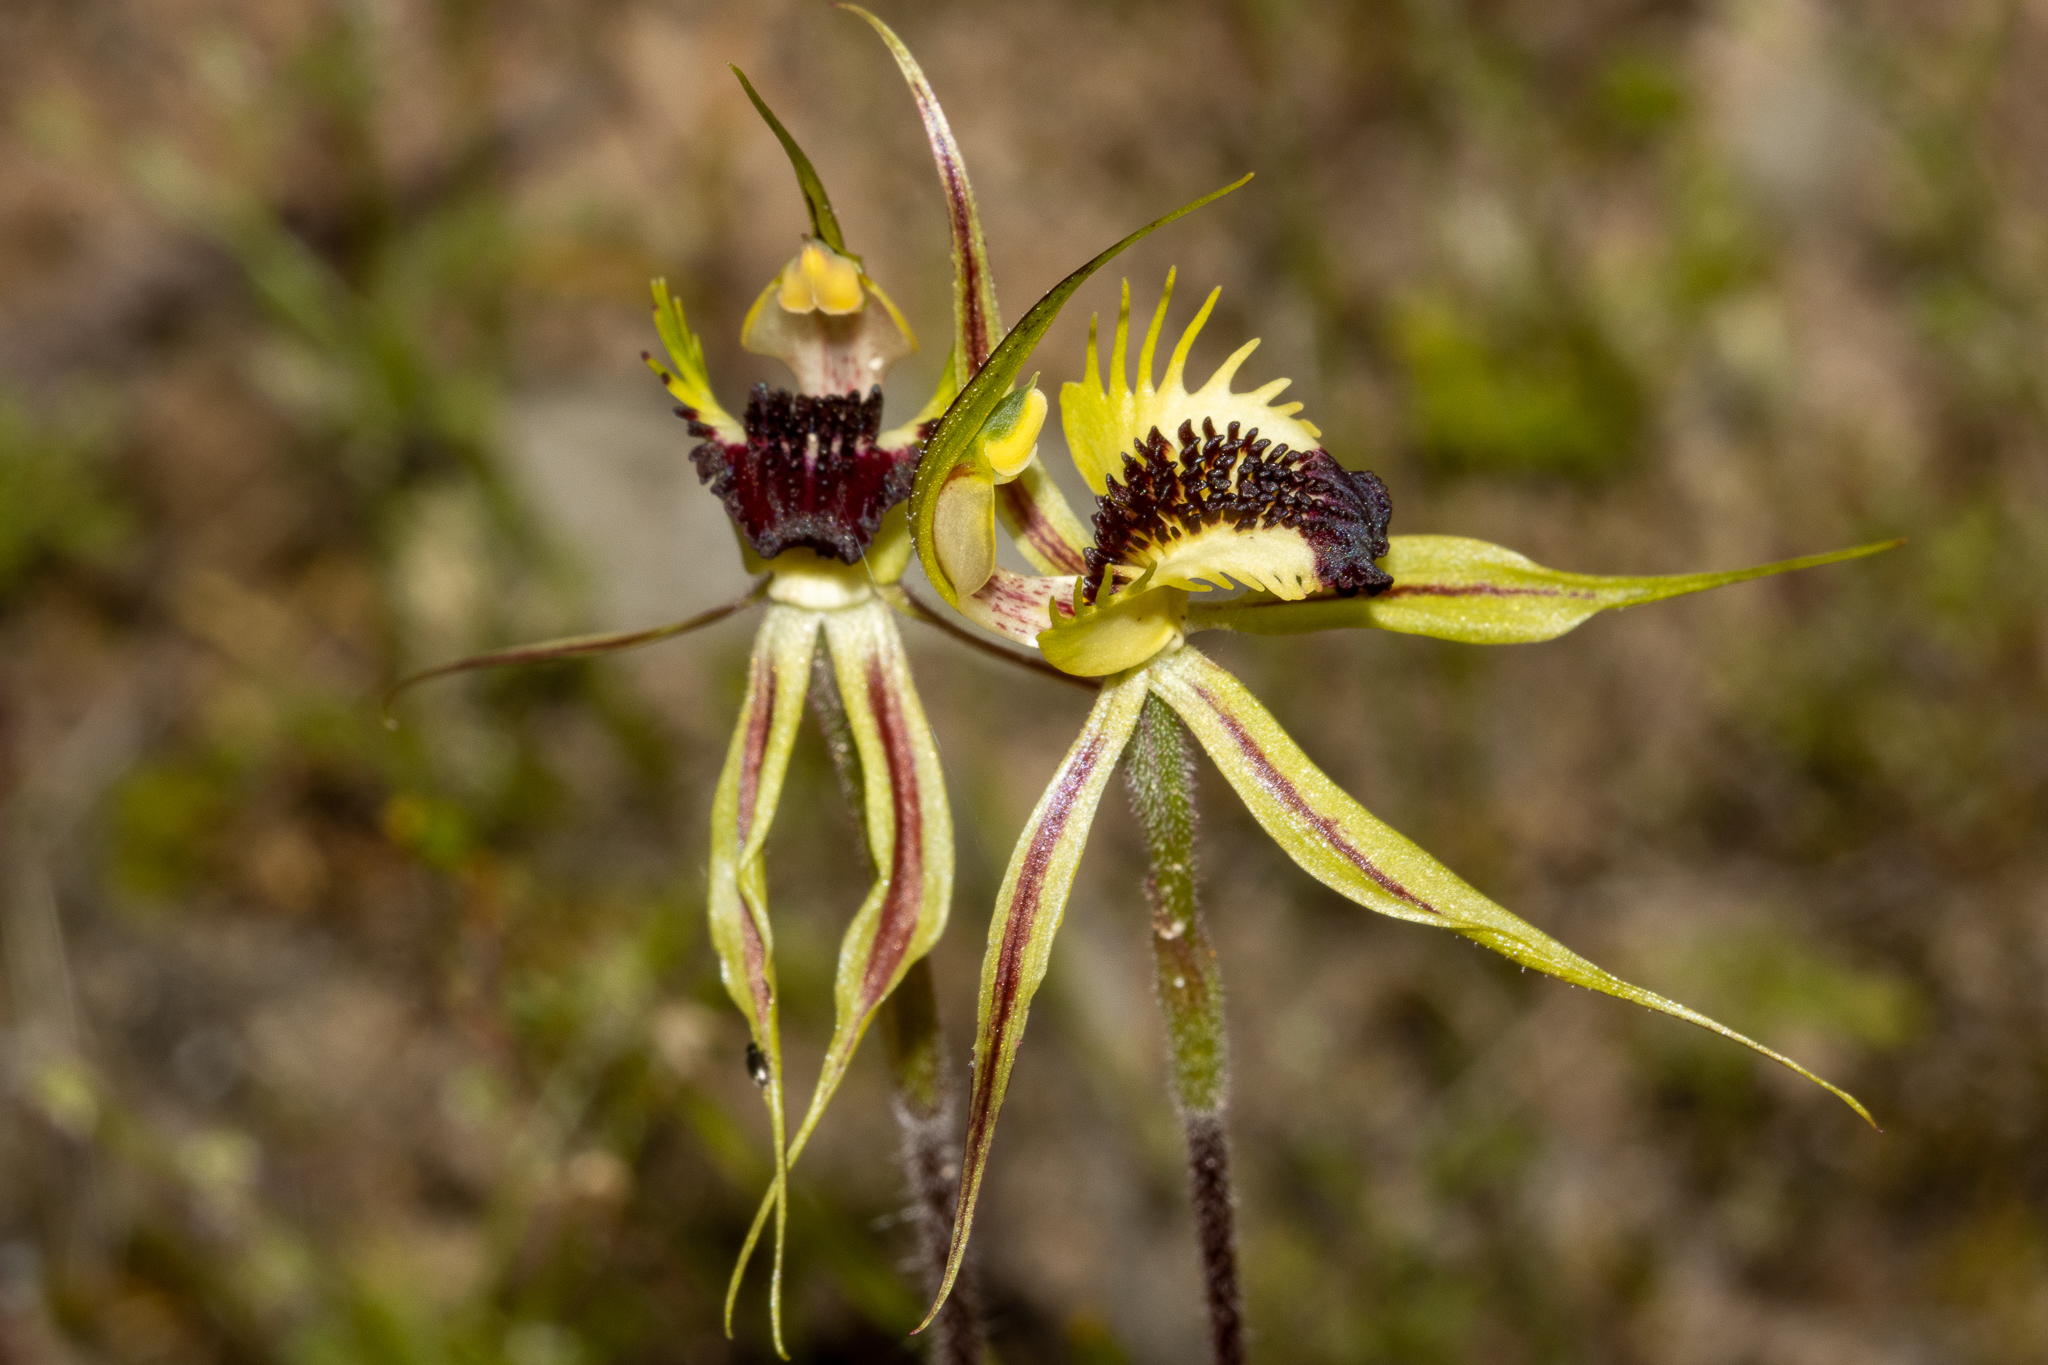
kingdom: Plantae
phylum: Tracheophyta
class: Liliopsida
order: Asparagales
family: Orchidaceae
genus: Caladenia
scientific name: Caladenia stricta
